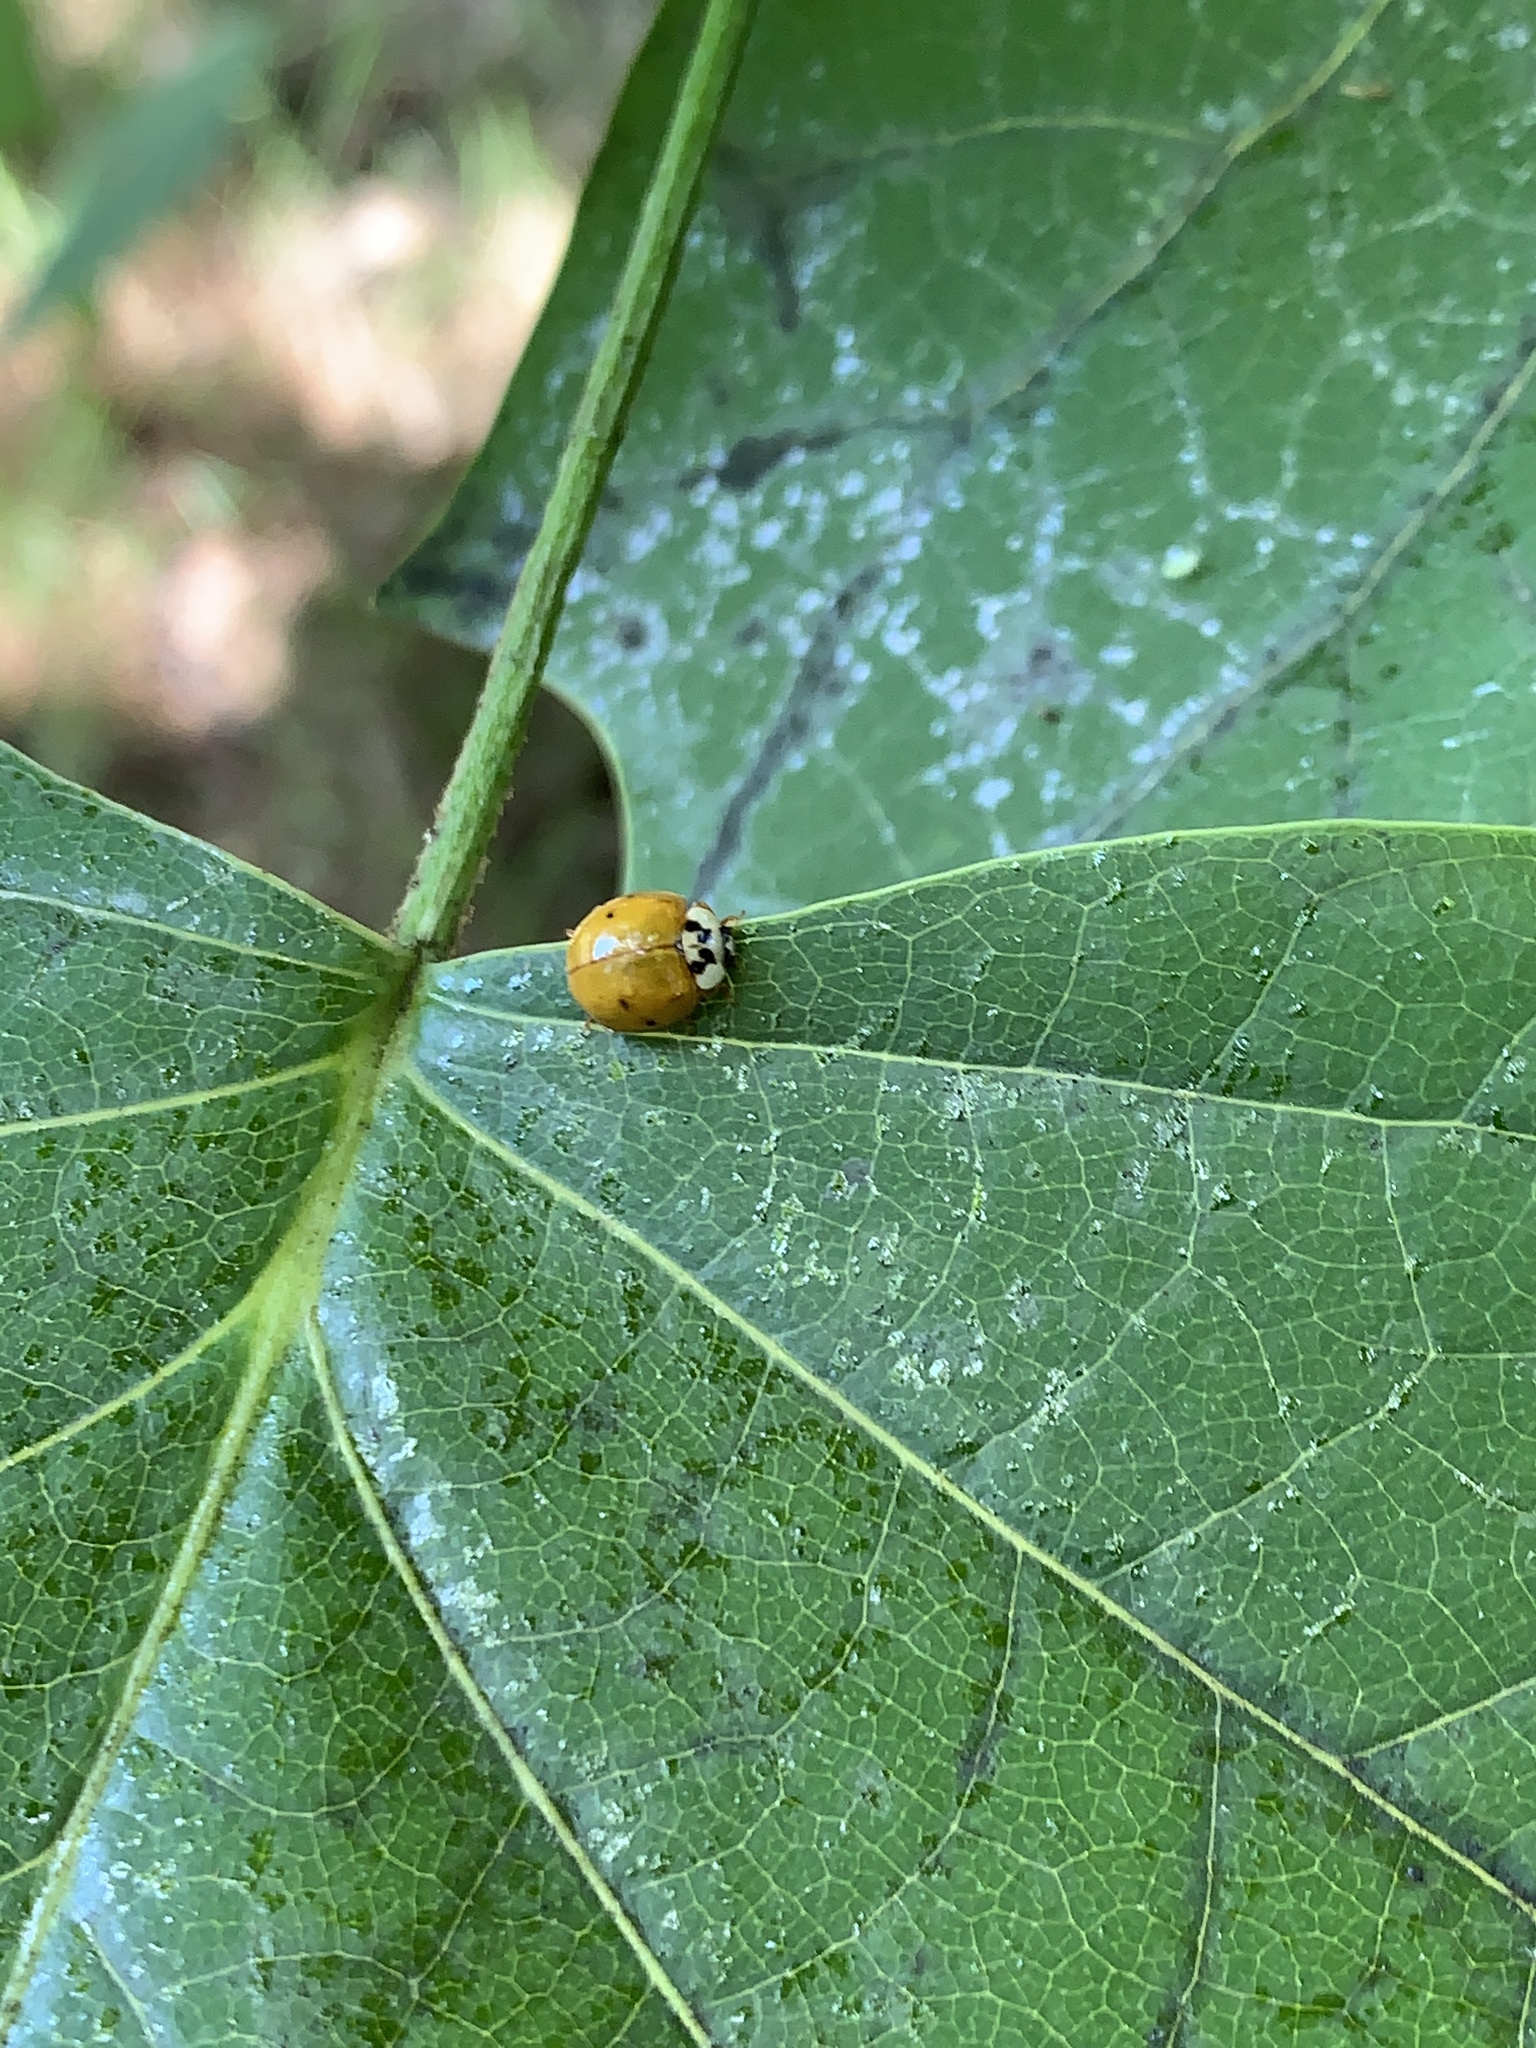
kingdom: Animalia
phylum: Arthropoda
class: Insecta
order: Coleoptera
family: Coccinellidae
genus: Harmonia
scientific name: Harmonia axyridis
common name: Harlequin ladybird
